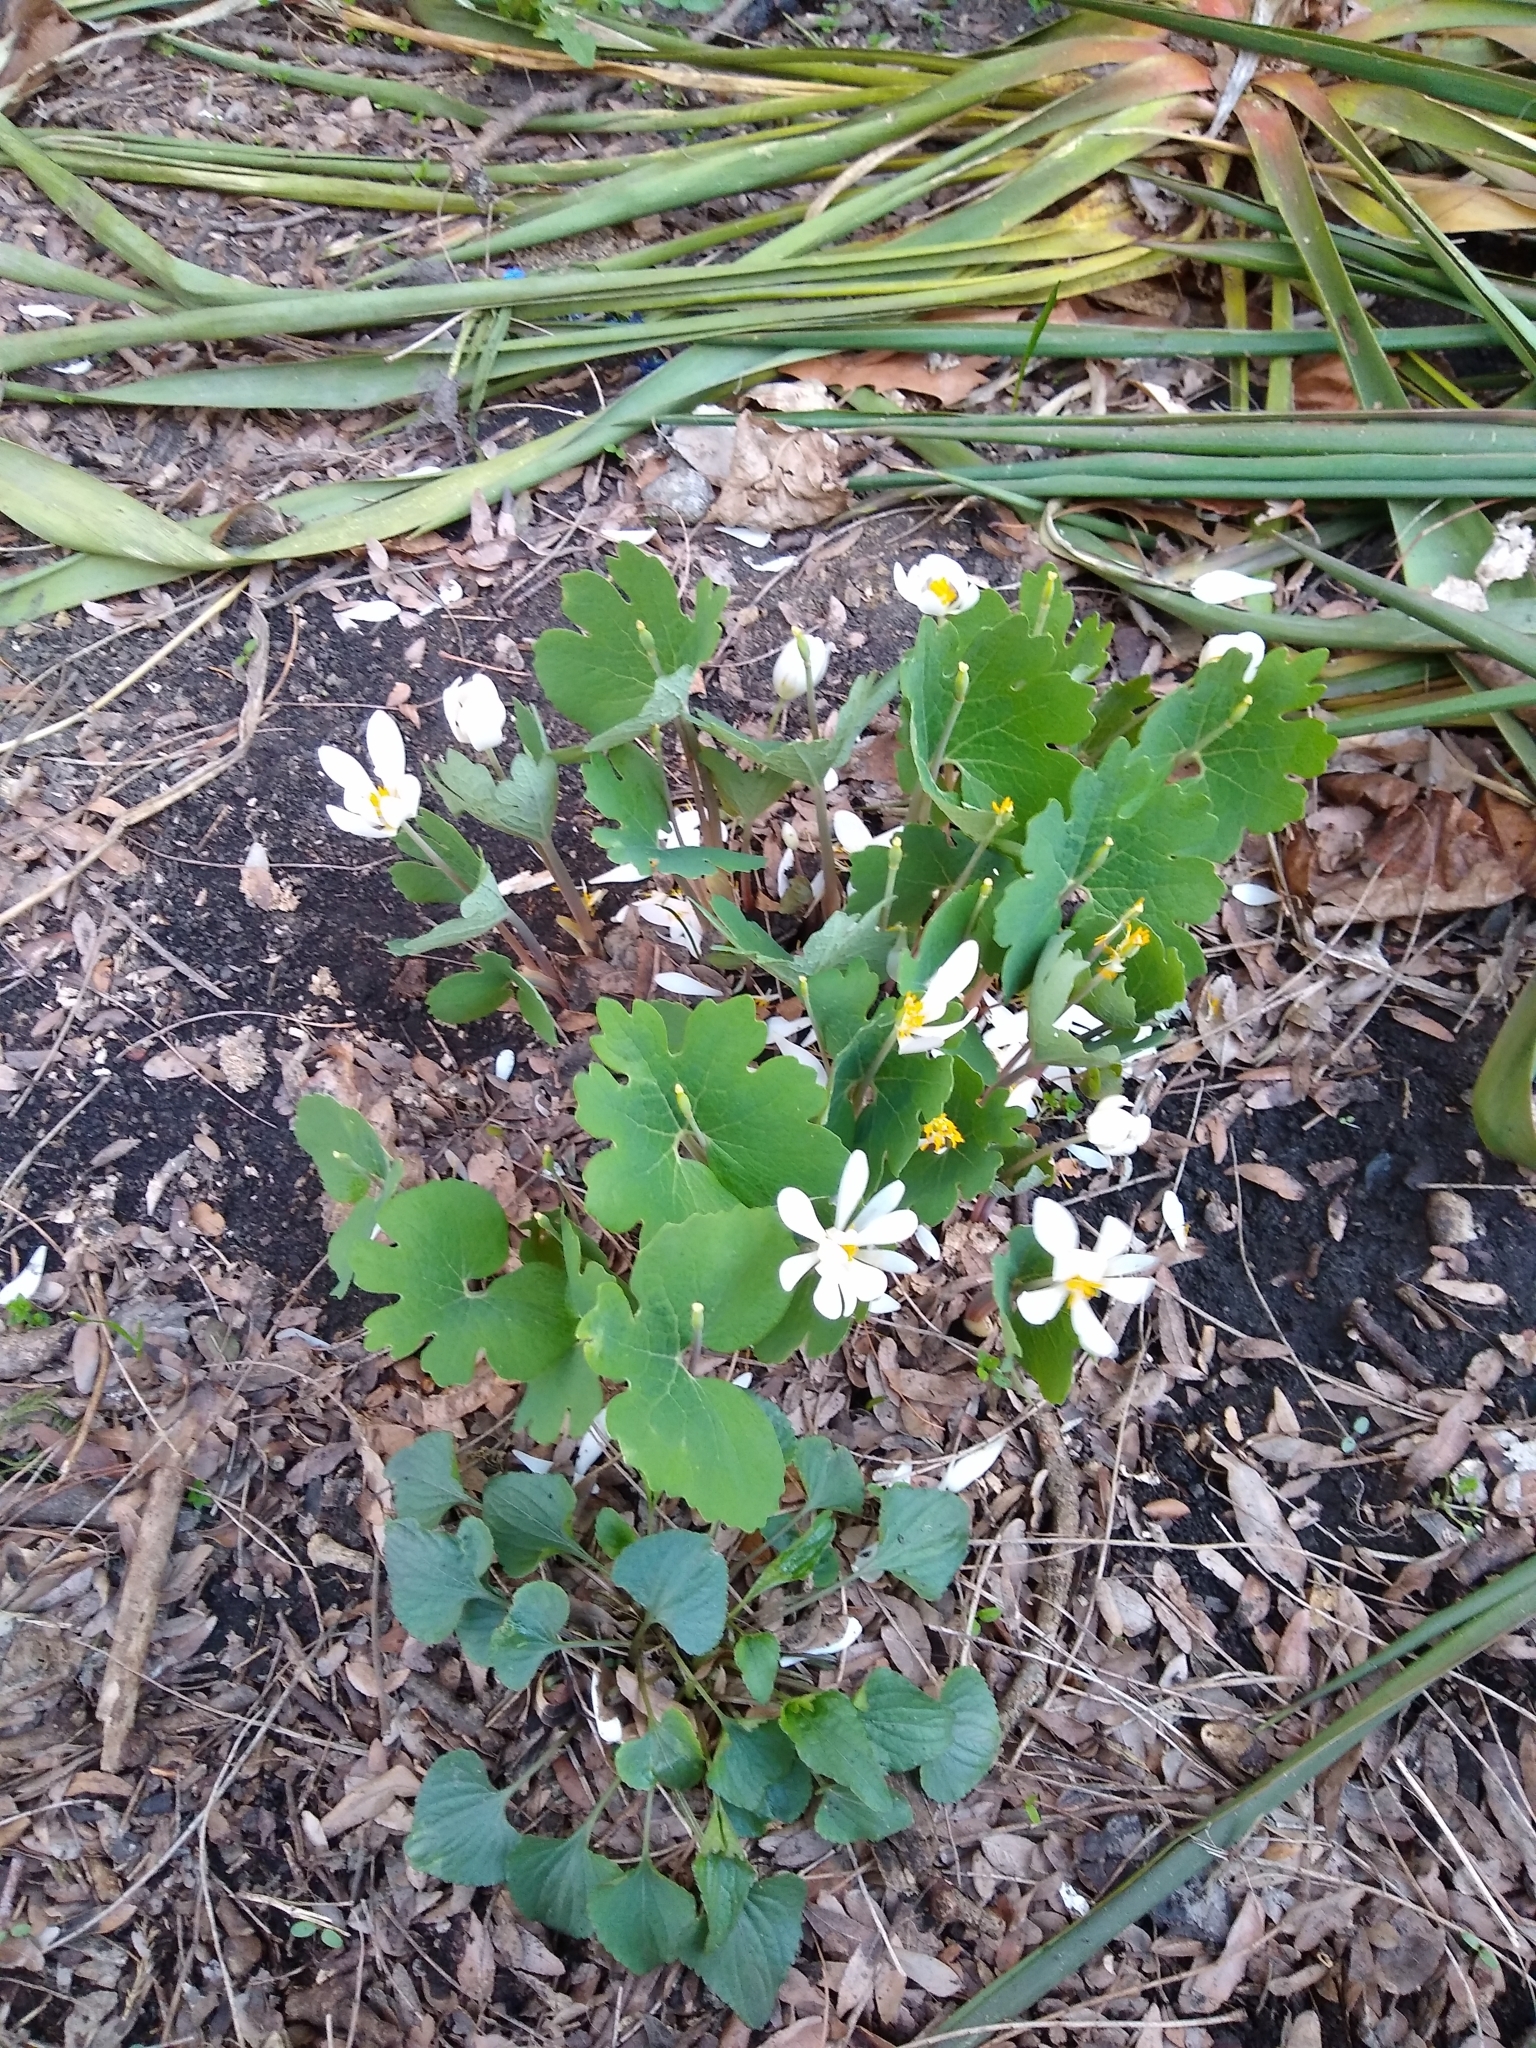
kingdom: Plantae
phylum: Tracheophyta
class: Magnoliopsida
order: Ranunculales
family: Papaveraceae
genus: Sanguinaria
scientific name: Sanguinaria canadensis
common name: Bloodroot
